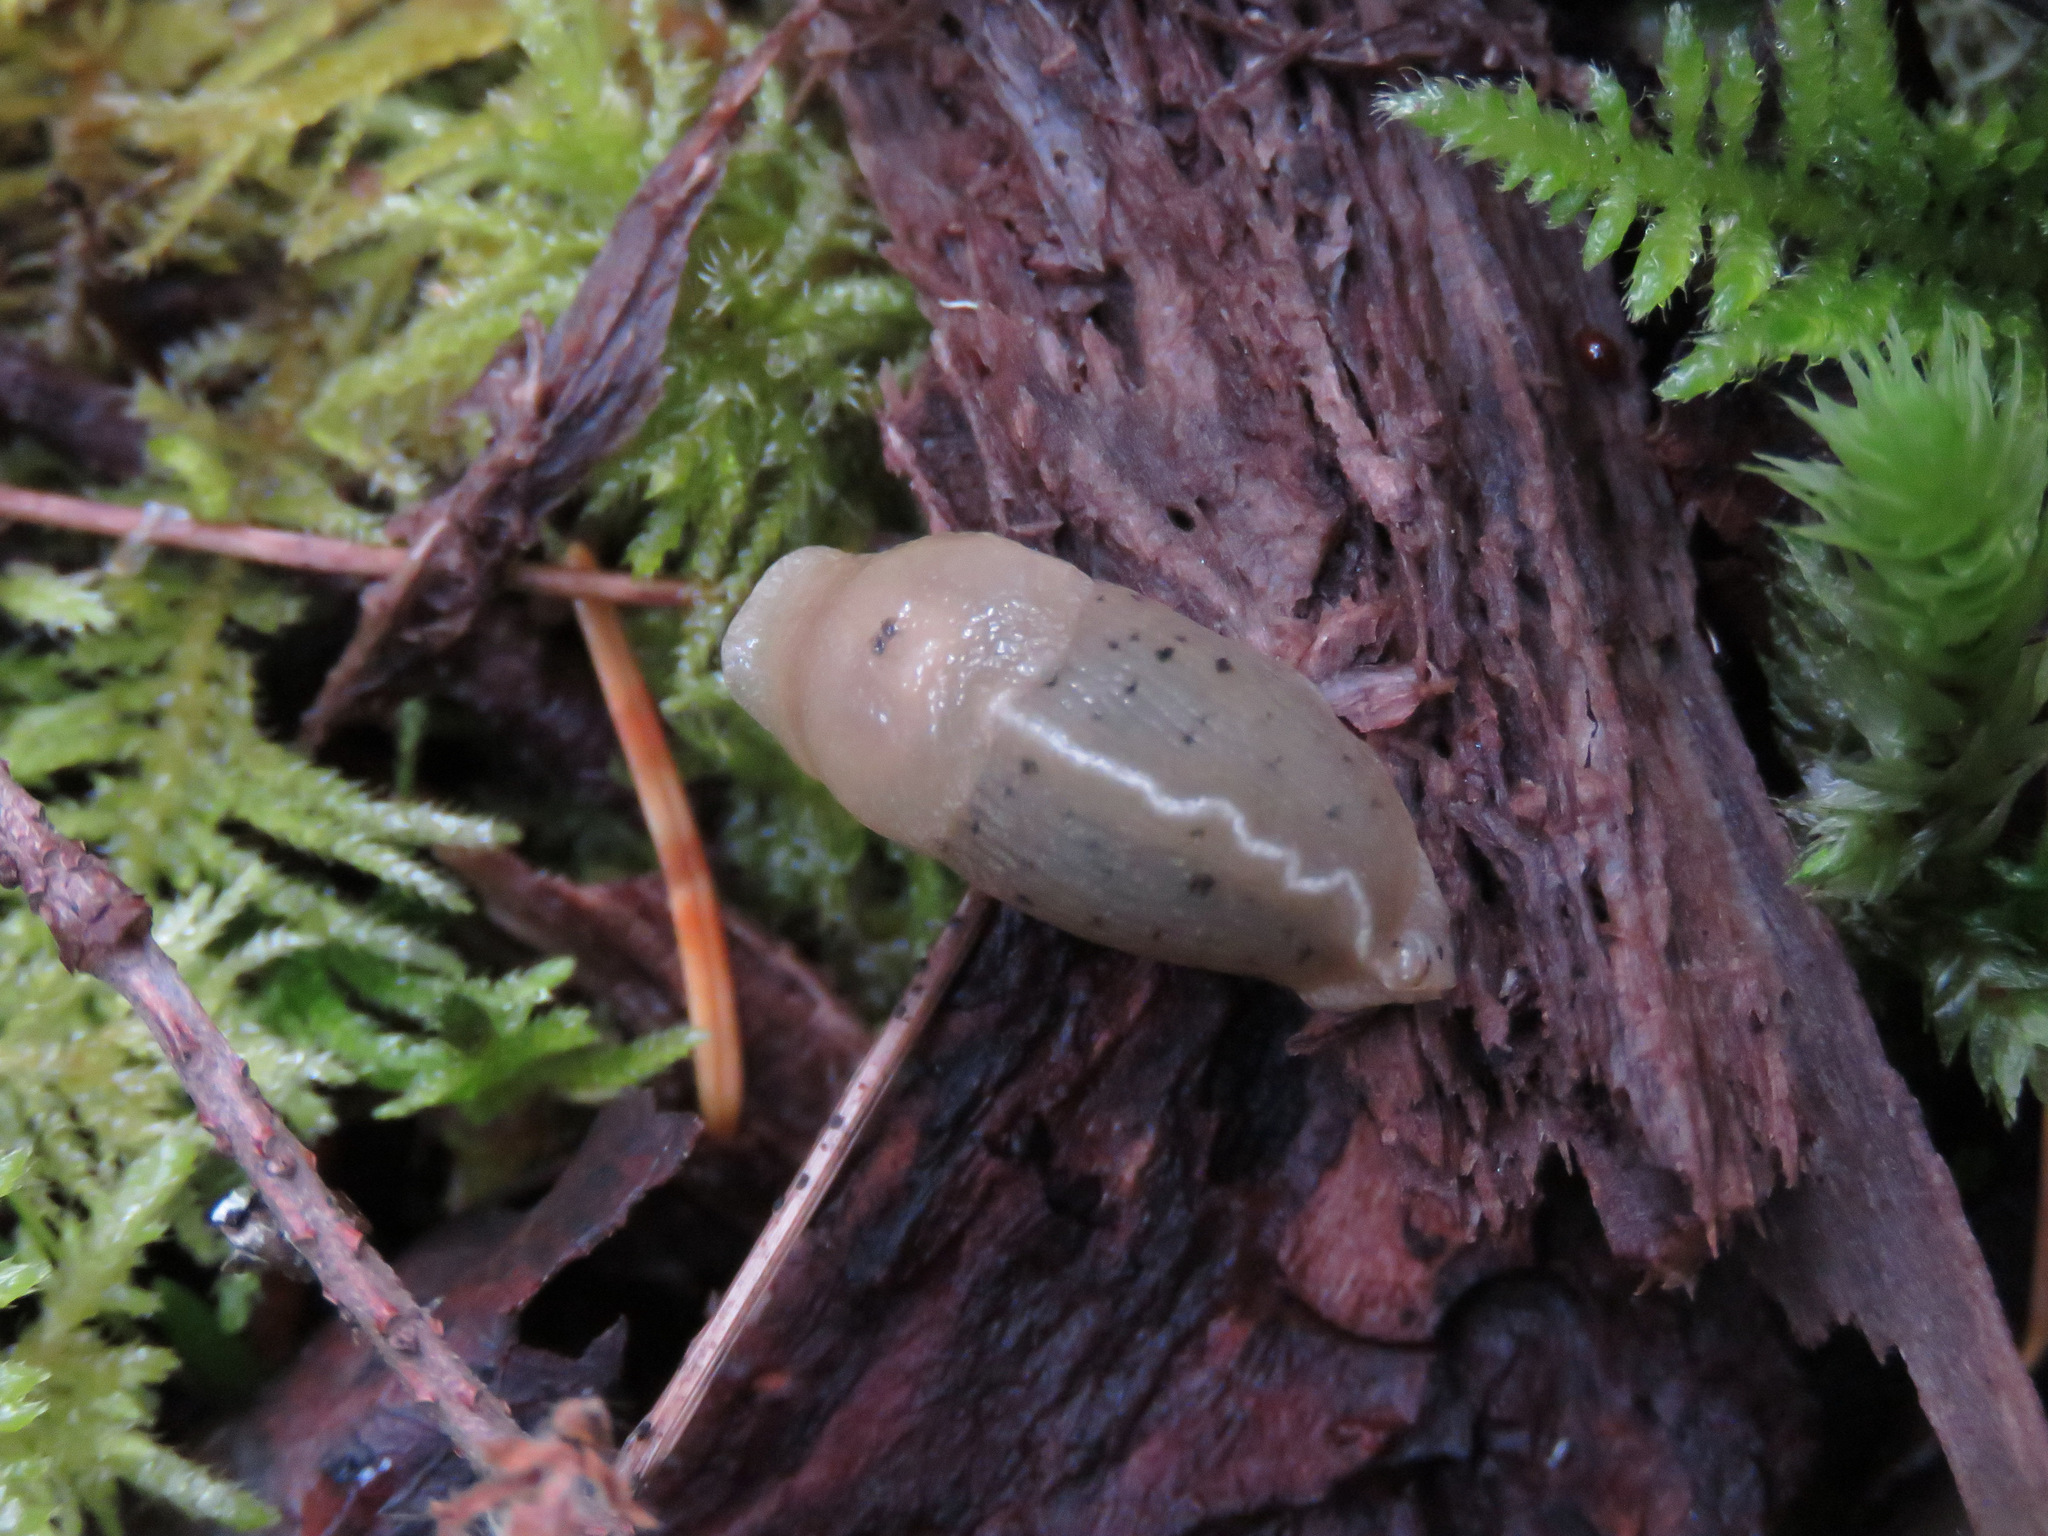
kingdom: Animalia
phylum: Mollusca
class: Gastropoda
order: Stylommatophora
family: Ariolimacidae
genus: Ariolimax
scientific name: Ariolimax columbianus
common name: Pacific banana slug
